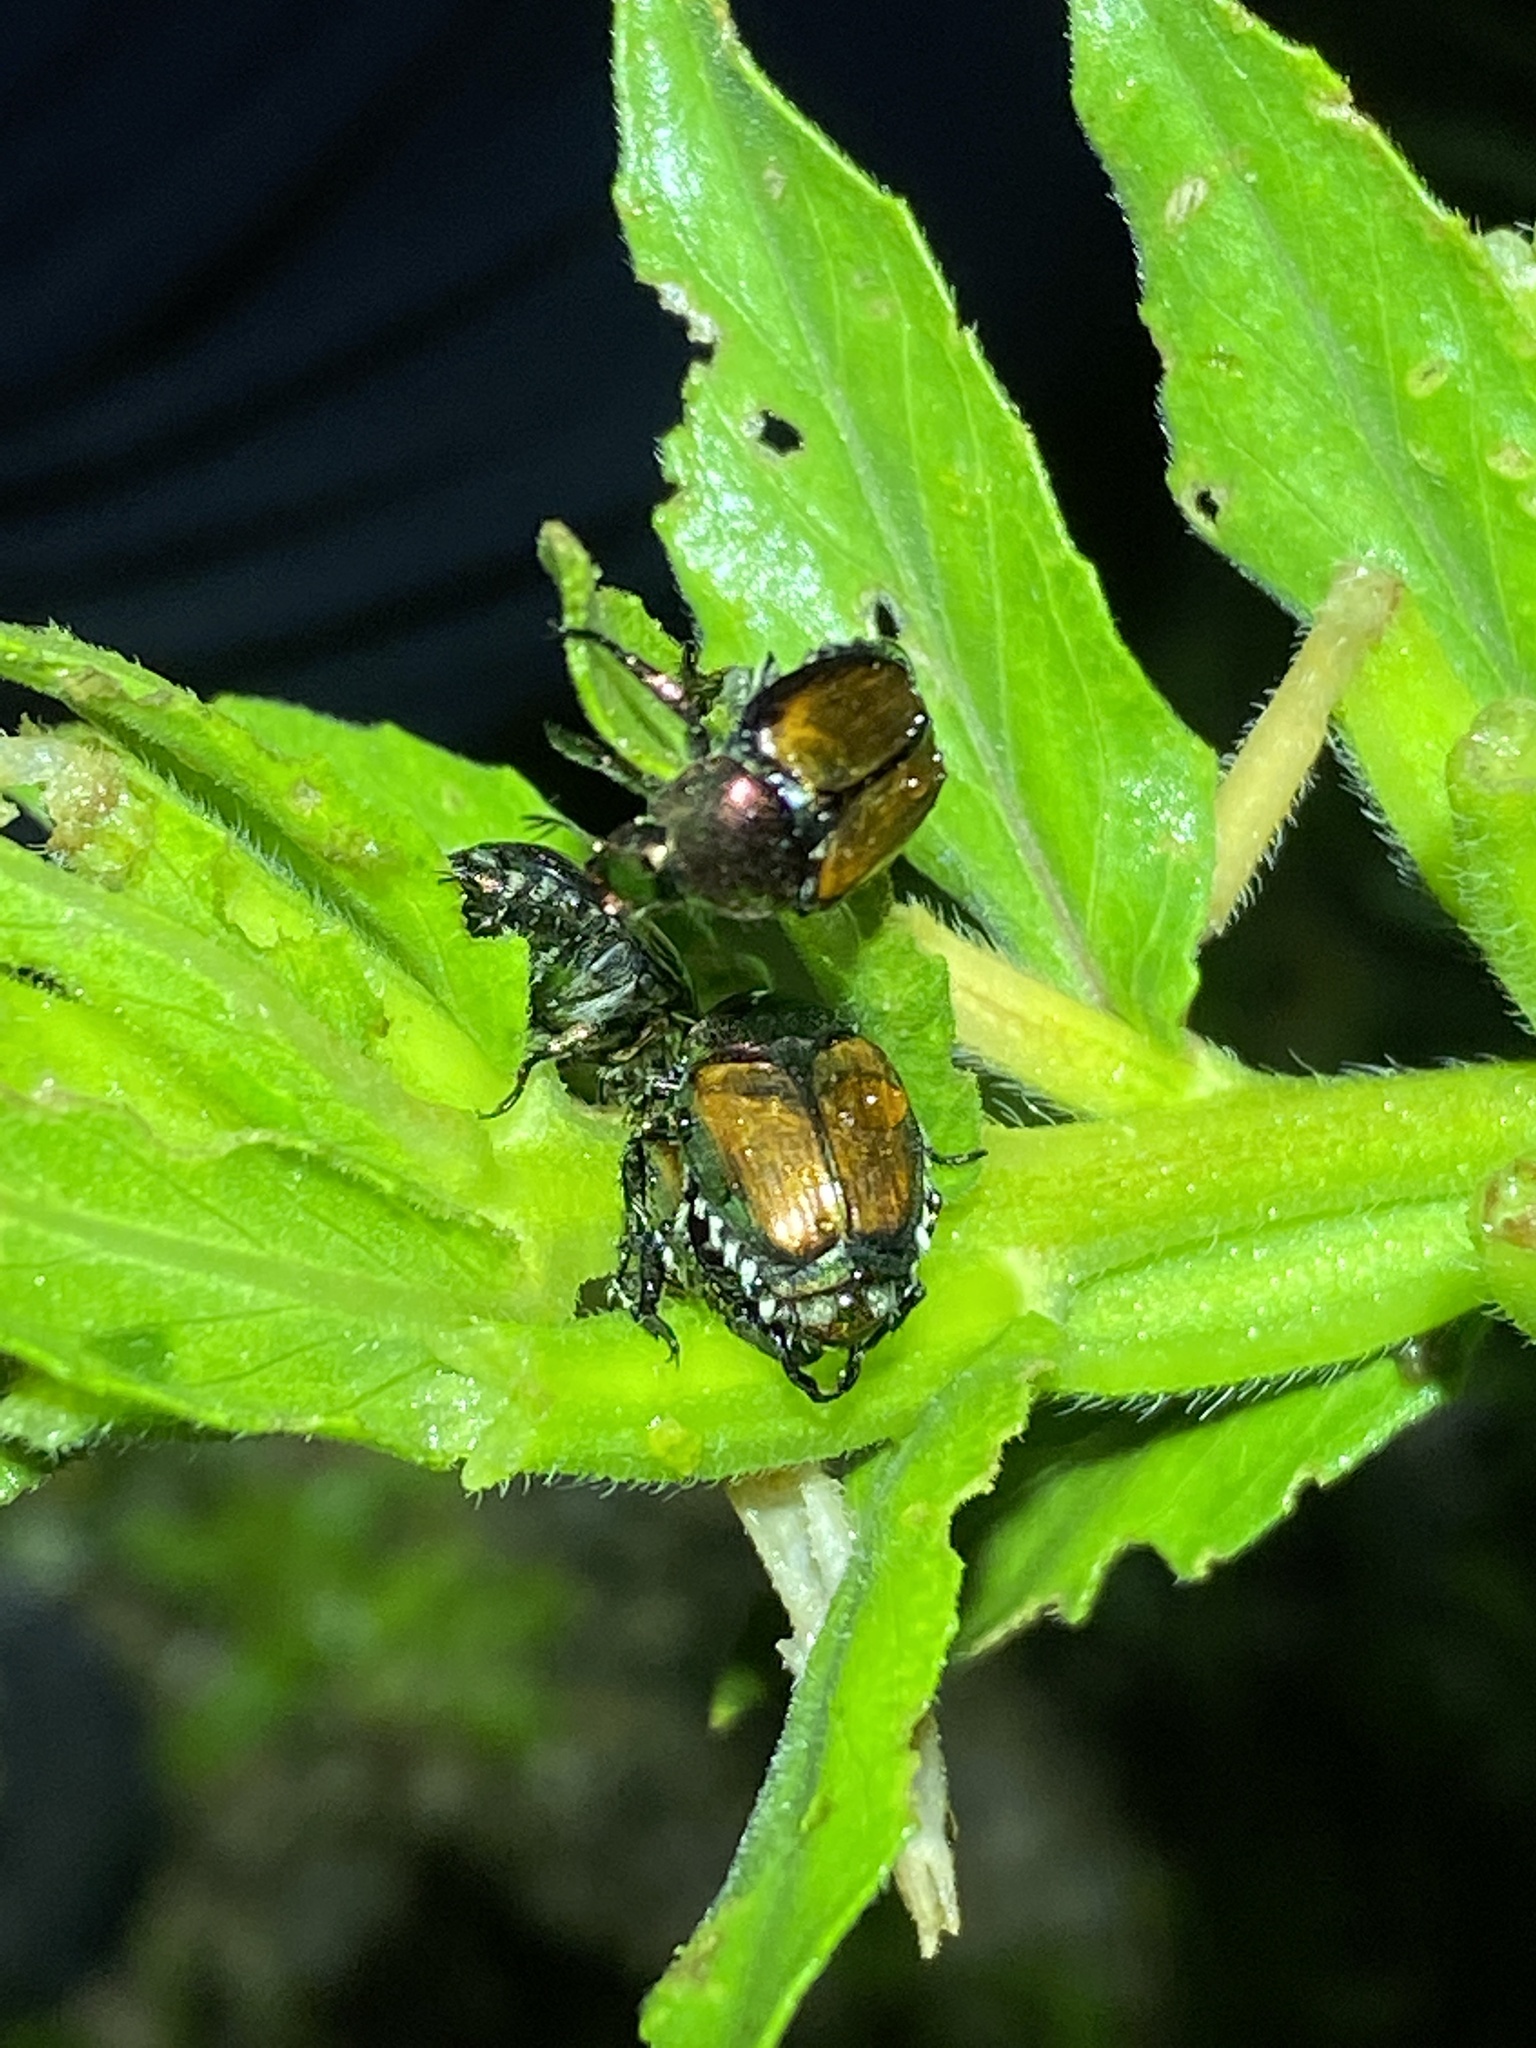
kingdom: Animalia
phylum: Arthropoda
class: Insecta
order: Coleoptera
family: Scarabaeidae
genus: Popillia
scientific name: Popillia japonica
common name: Japanese beetle
